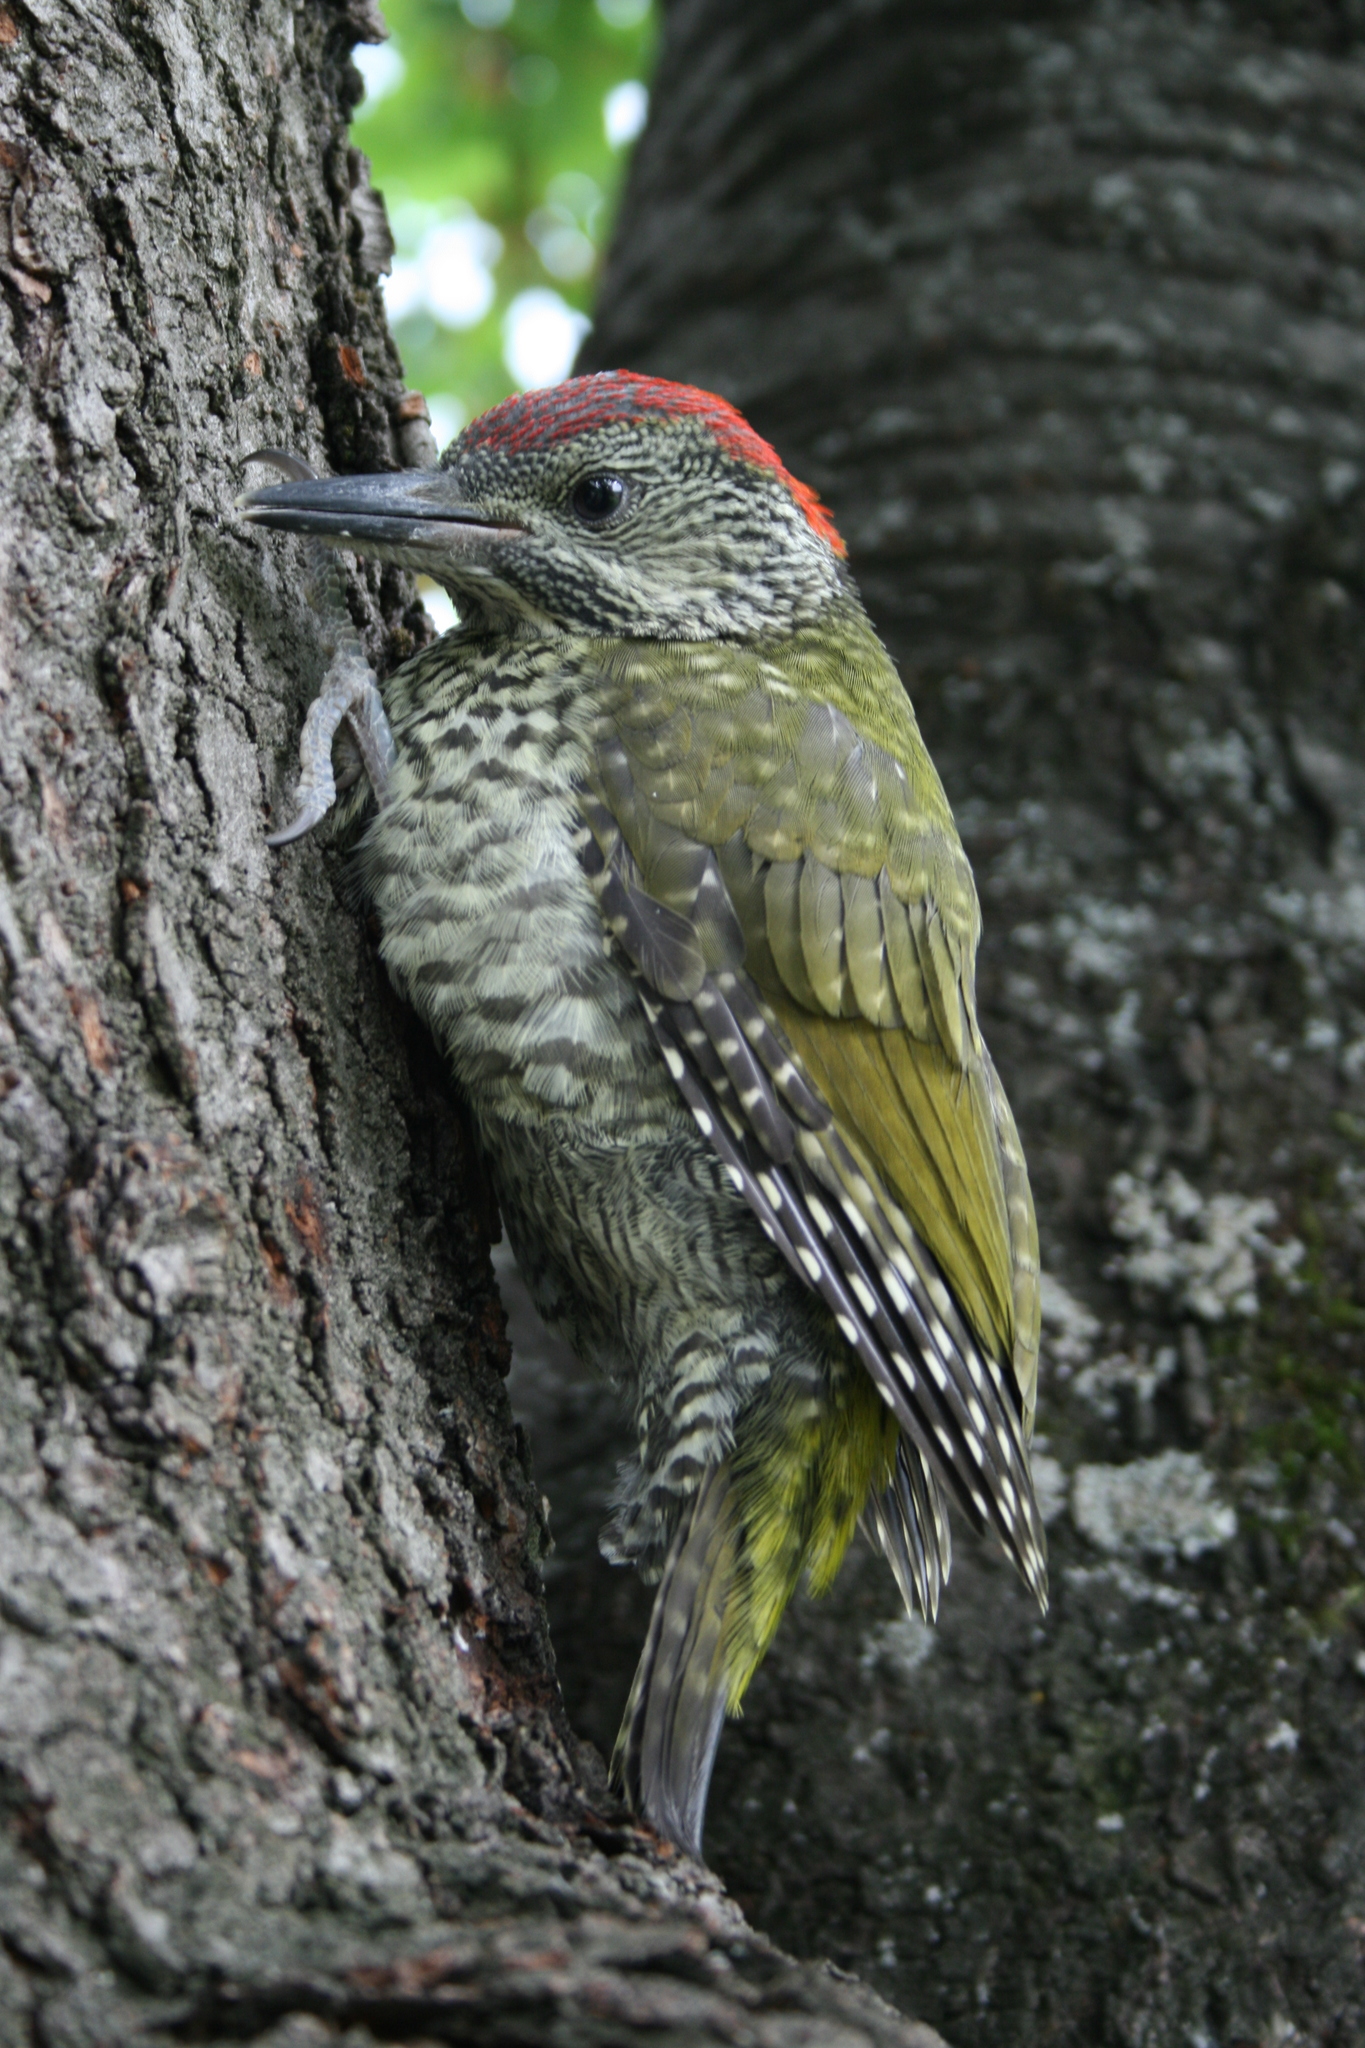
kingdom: Animalia
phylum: Chordata
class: Aves
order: Piciformes
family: Picidae
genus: Picus
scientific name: Picus viridis
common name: European green woodpecker
